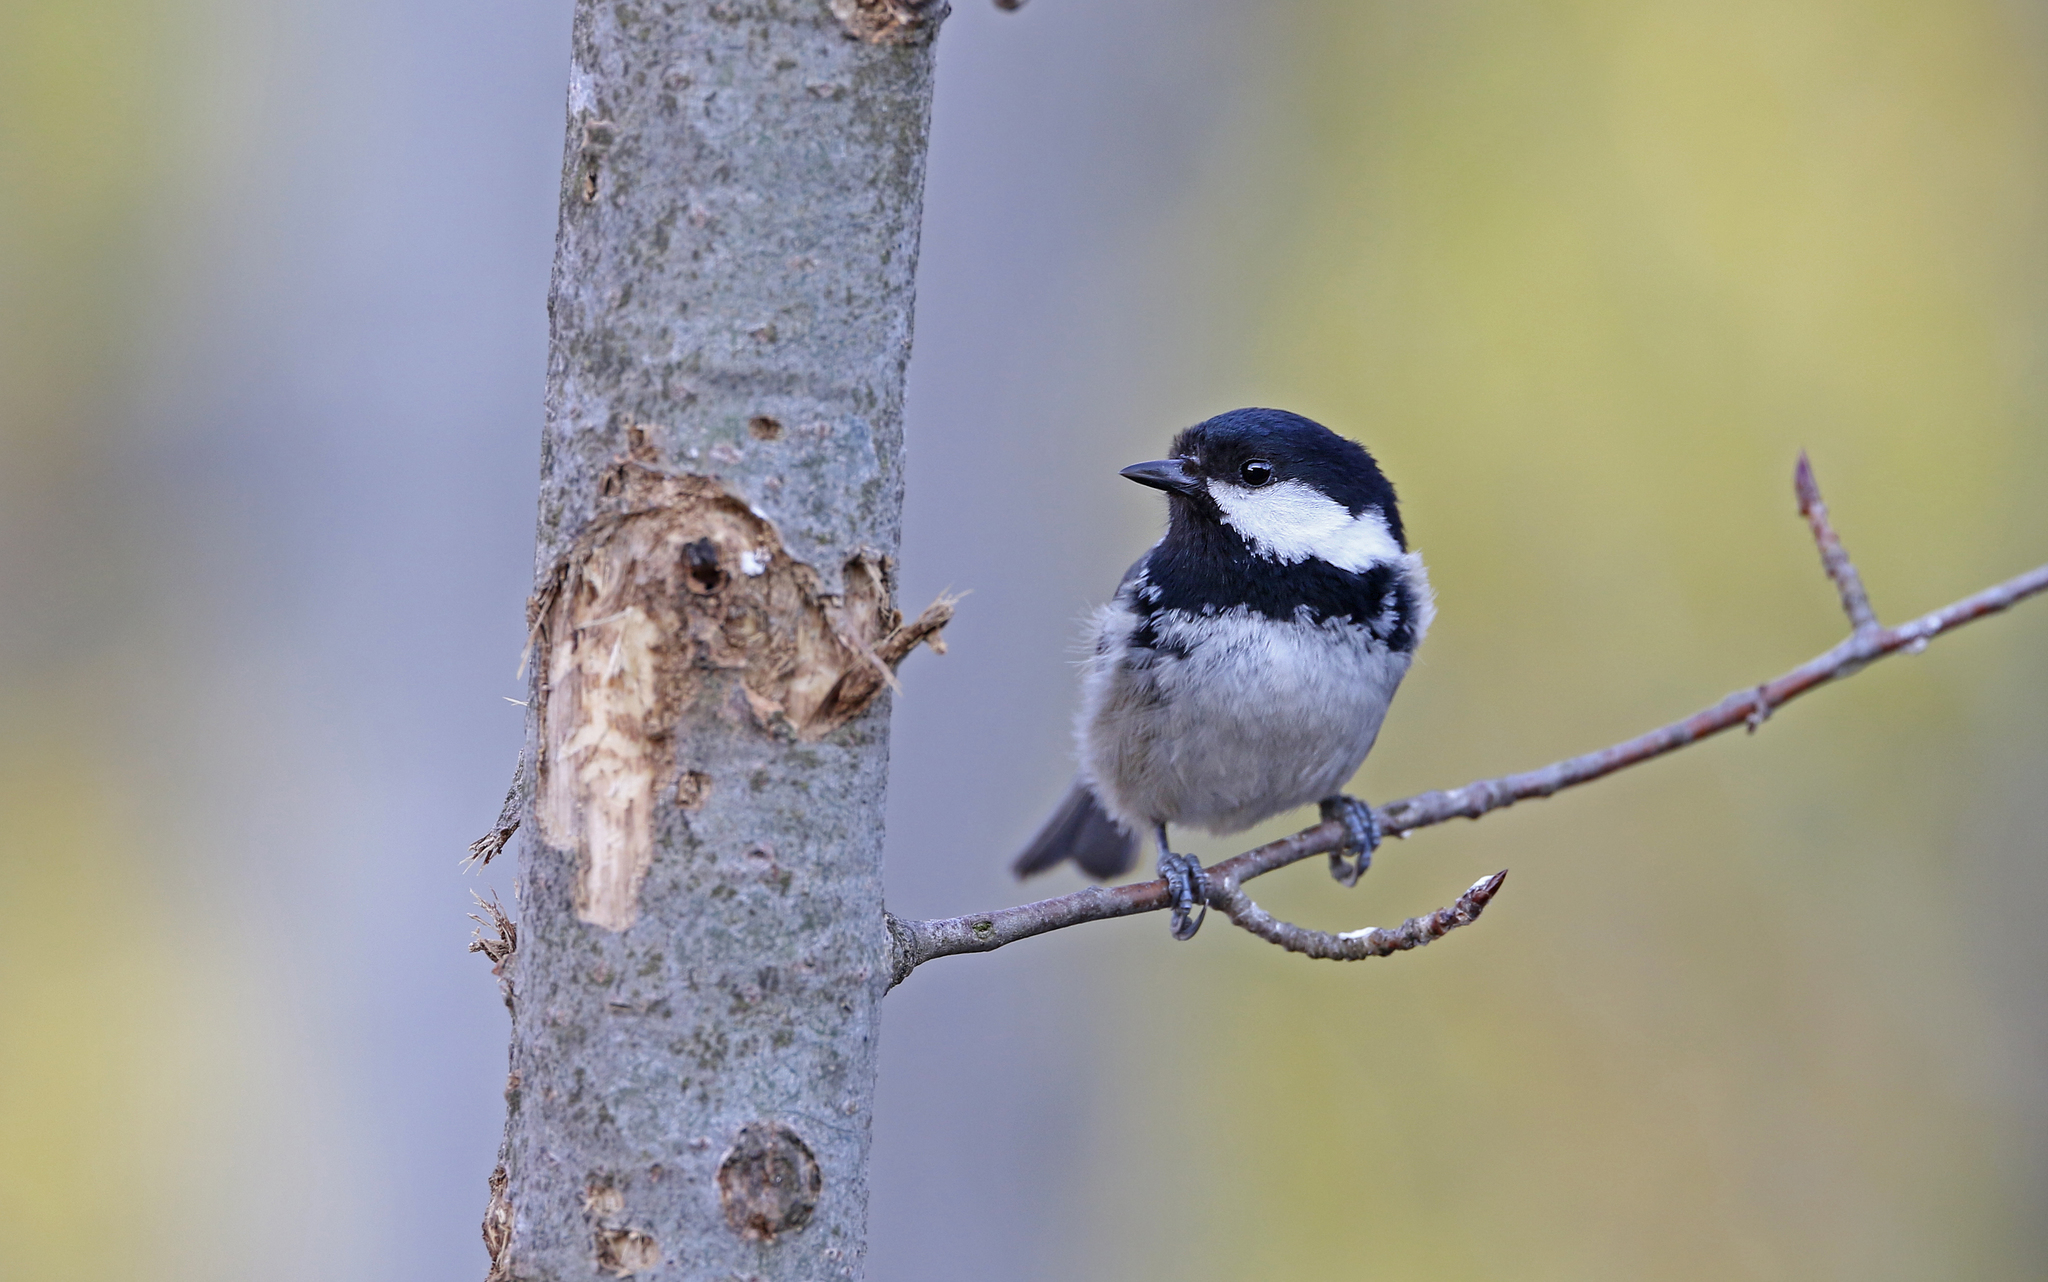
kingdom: Animalia
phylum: Chordata
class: Aves
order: Passeriformes
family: Paridae
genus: Periparus
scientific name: Periparus ater
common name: Coal tit
